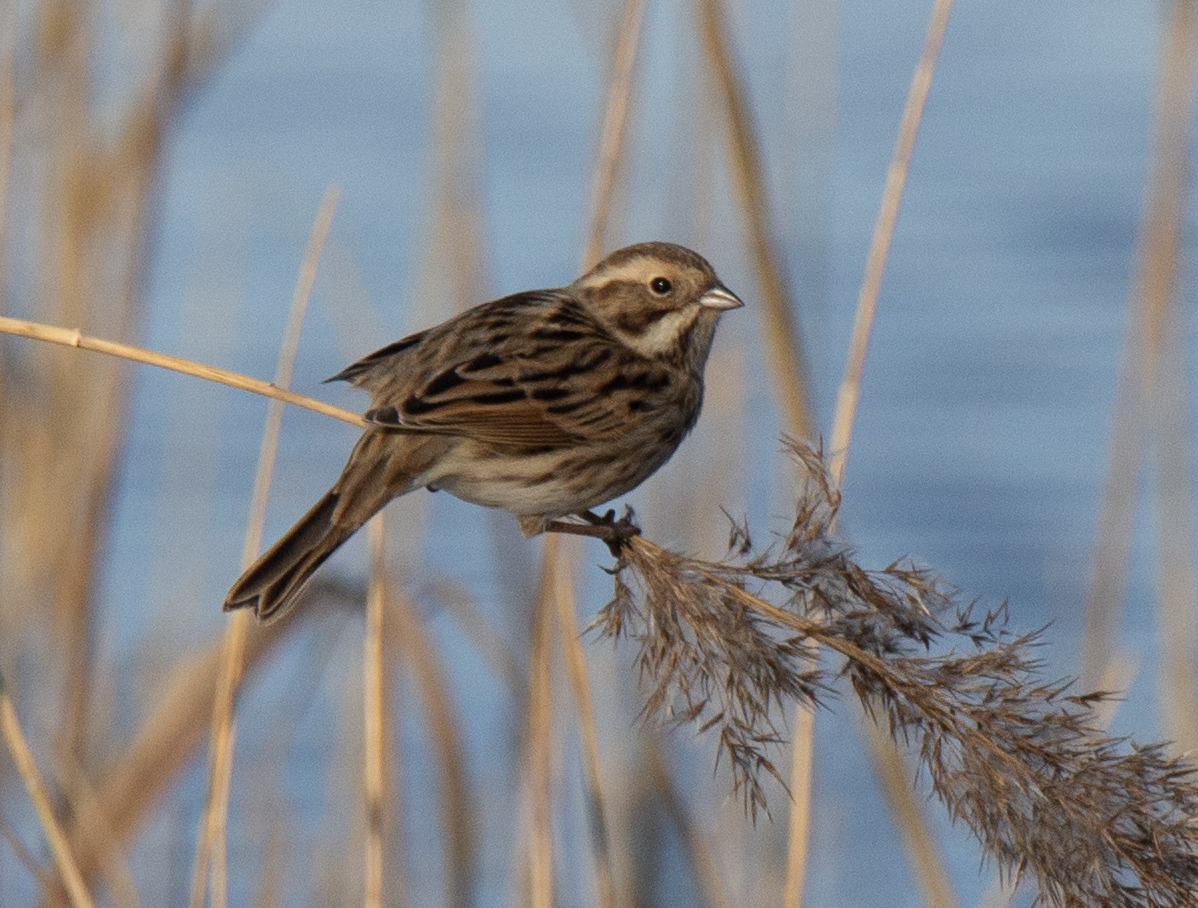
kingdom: Animalia
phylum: Chordata
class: Aves
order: Passeriformes
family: Emberizidae
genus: Emberiza
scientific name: Emberiza schoeniclus
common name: Reed bunting
